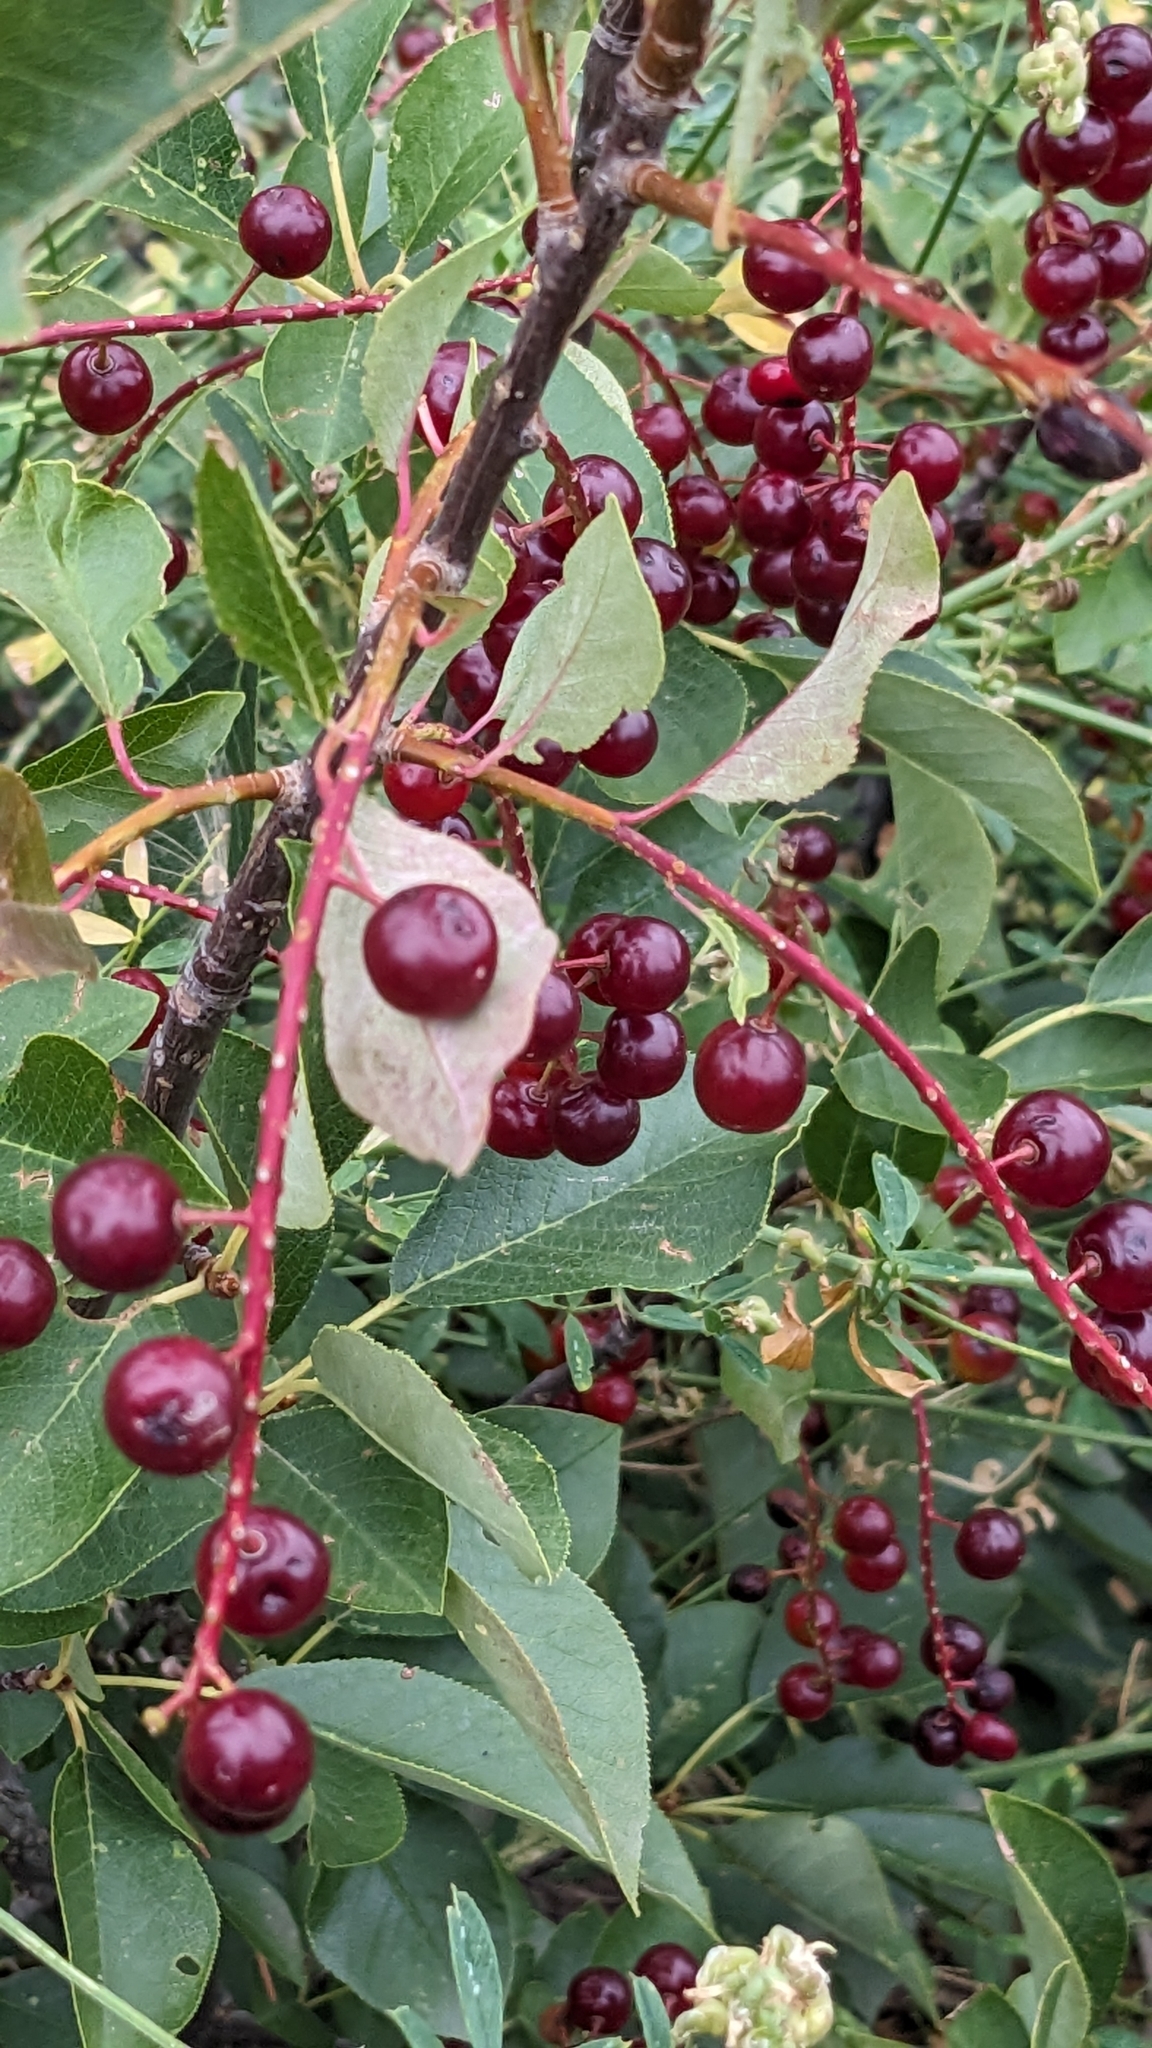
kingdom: Plantae
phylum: Tracheophyta
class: Magnoliopsida
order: Rosales
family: Rosaceae
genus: Prunus
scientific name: Prunus virginiana
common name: Chokecherry
